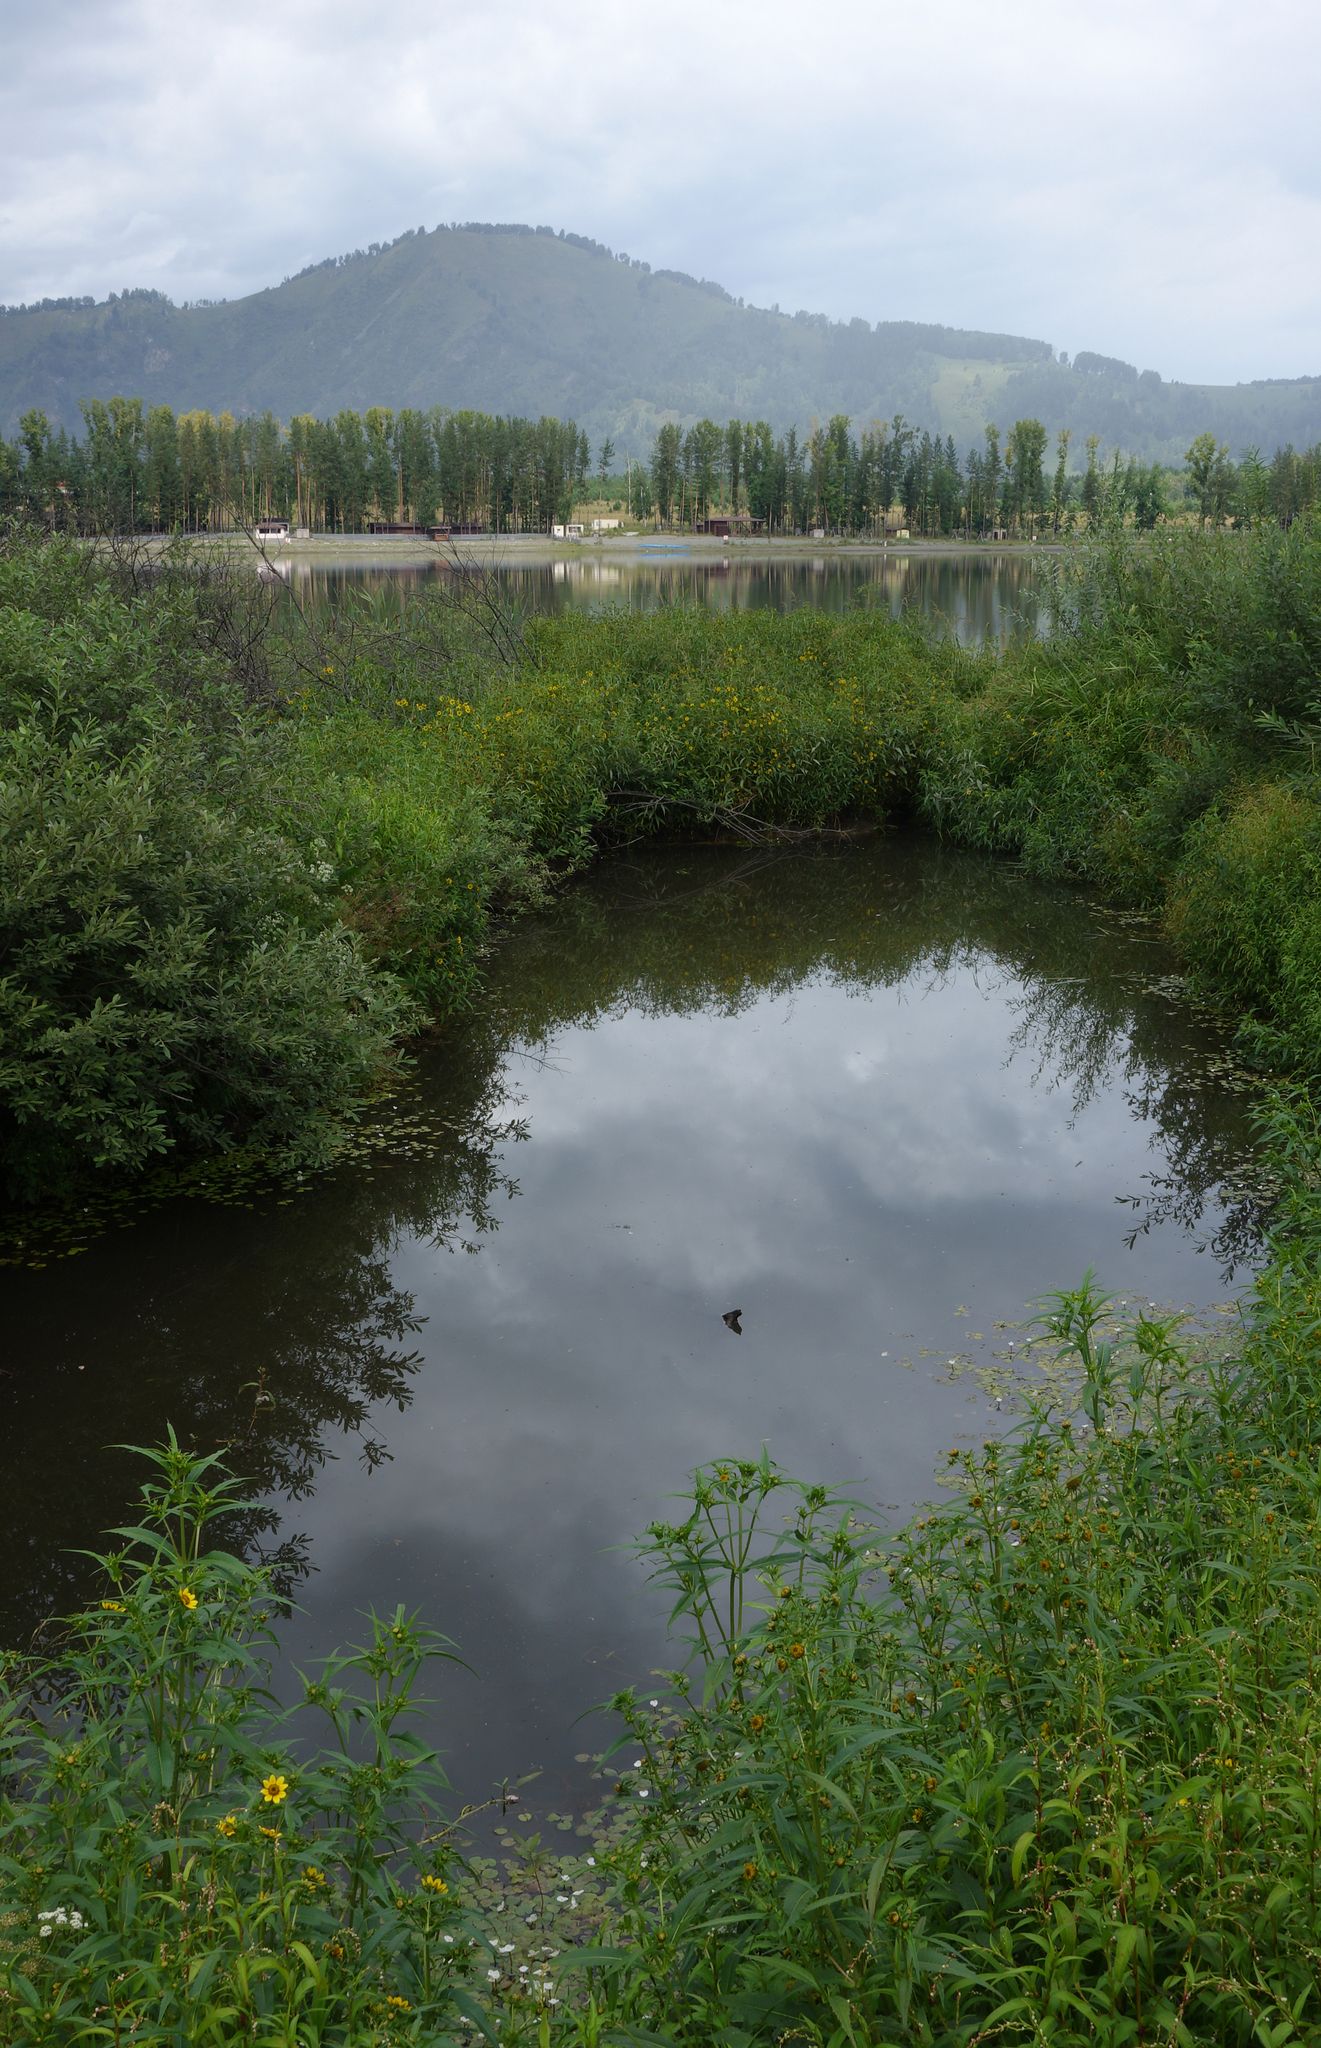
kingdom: Plantae
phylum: Tracheophyta
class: Magnoliopsida
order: Asterales
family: Asteraceae
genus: Bidens
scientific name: Bidens cernua
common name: Nodding bur-marigold
